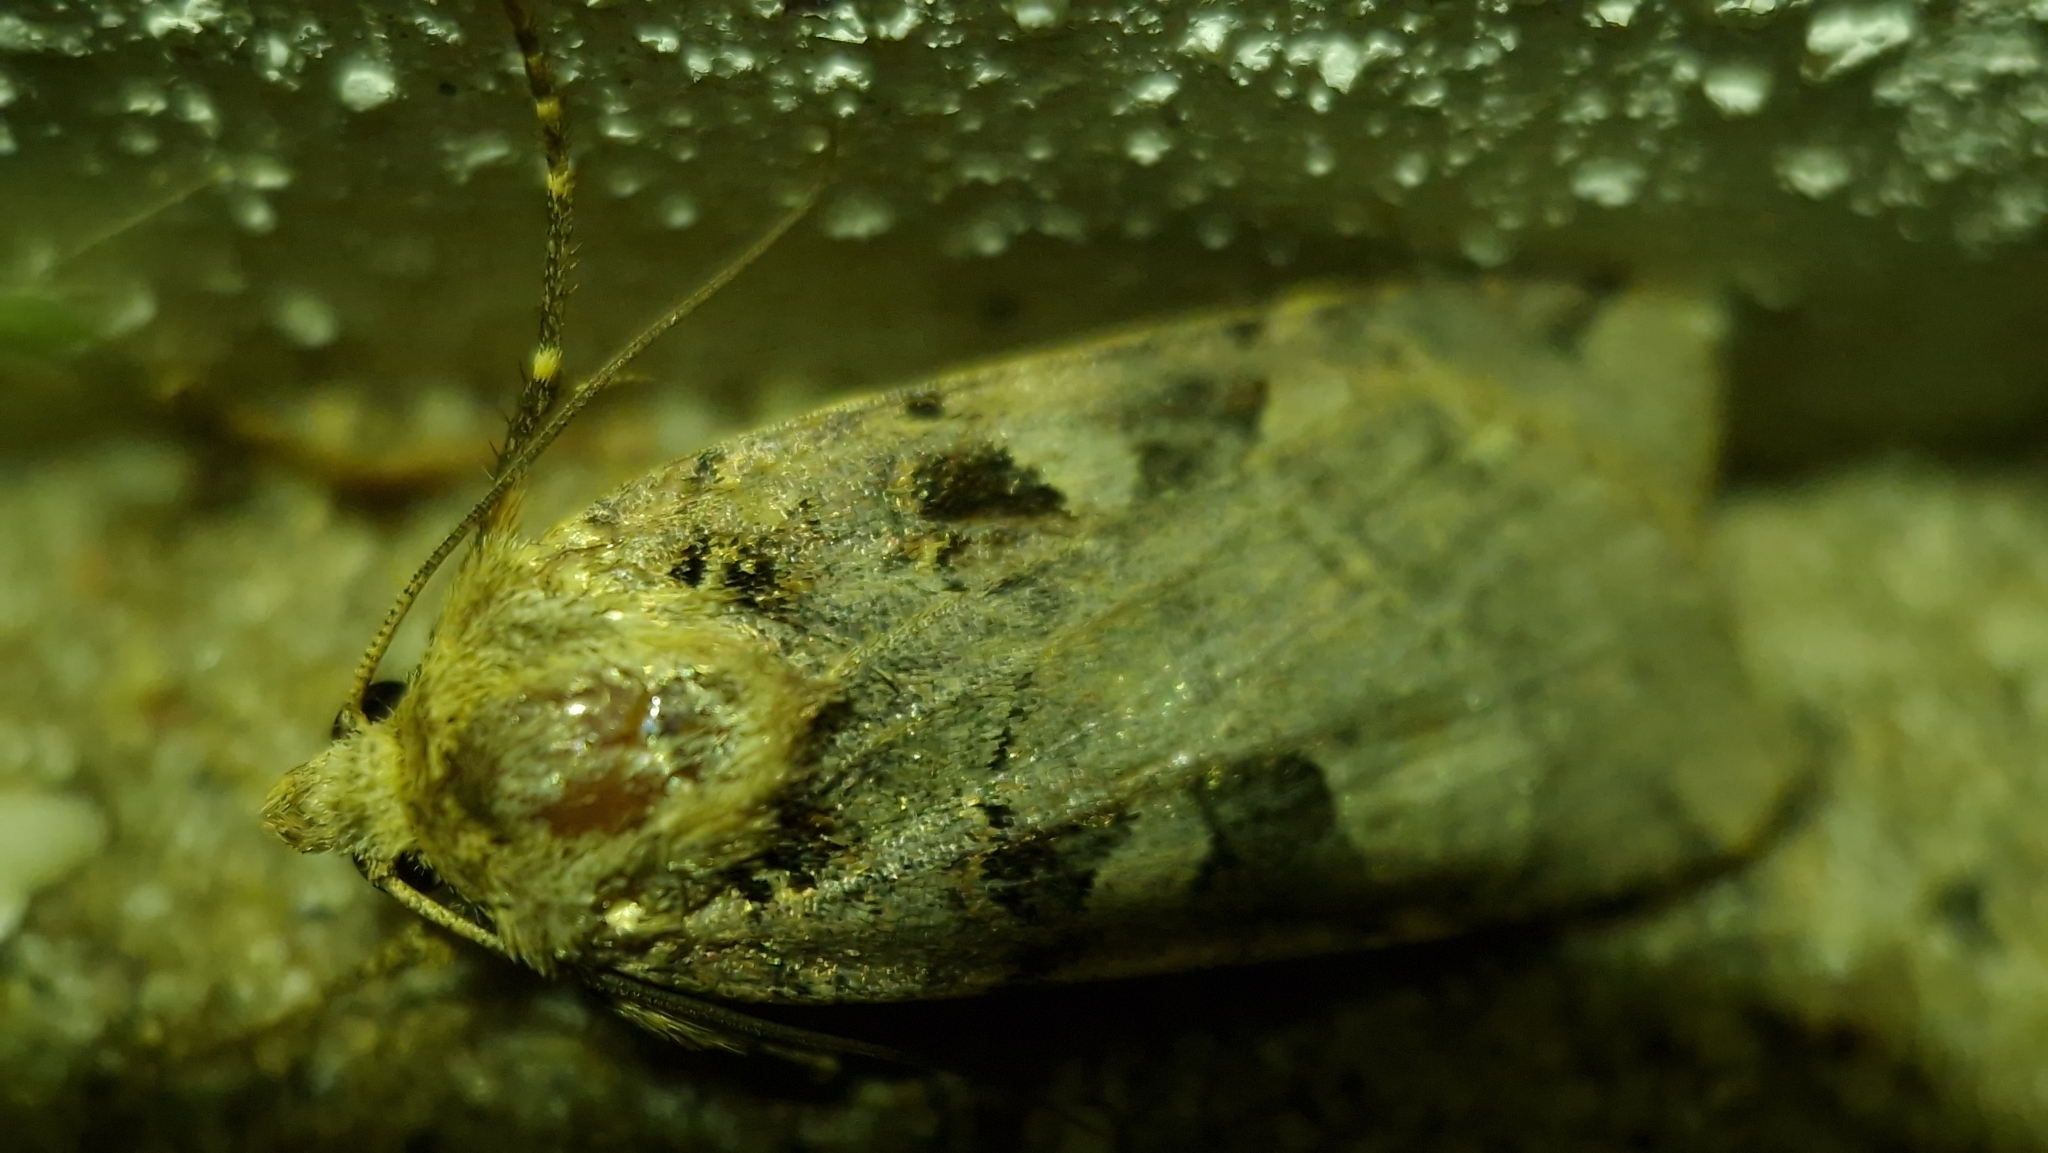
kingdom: Animalia
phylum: Arthropoda
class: Insecta
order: Lepidoptera
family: Noctuidae
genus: Xestia
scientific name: Xestia triangulum
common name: Double square-spot
